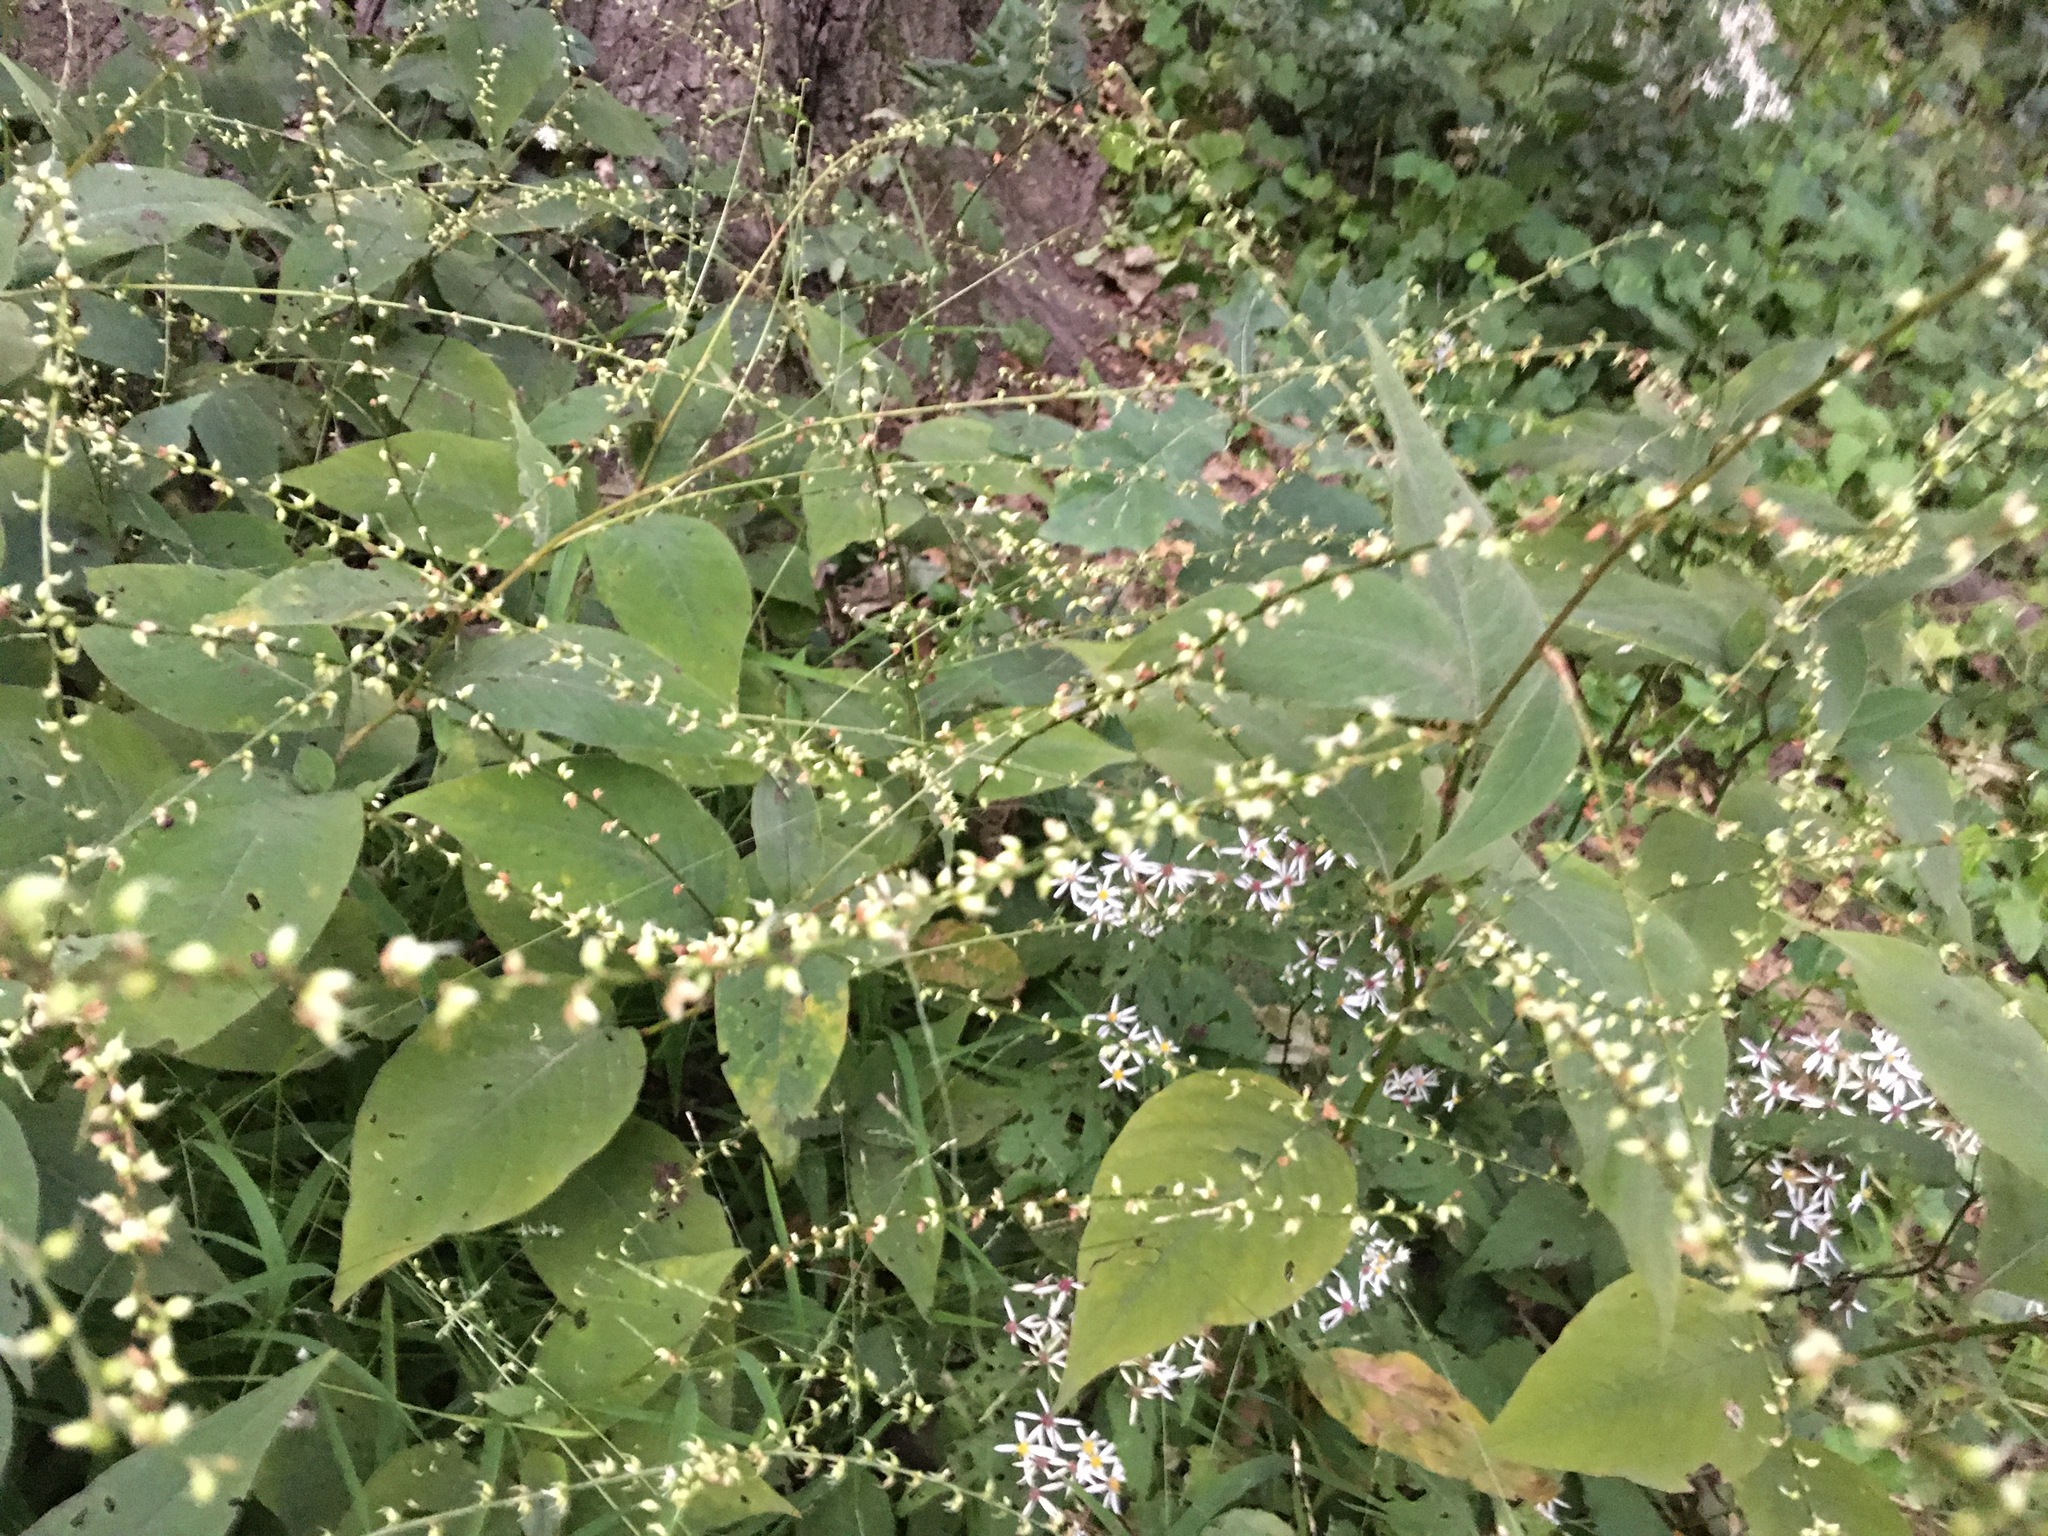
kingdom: Plantae
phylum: Tracheophyta
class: Magnoliopsida
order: Caryophyllales
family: Polygonaceae
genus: Persicaria
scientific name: Persicaria virginiana
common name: Jumpseed
